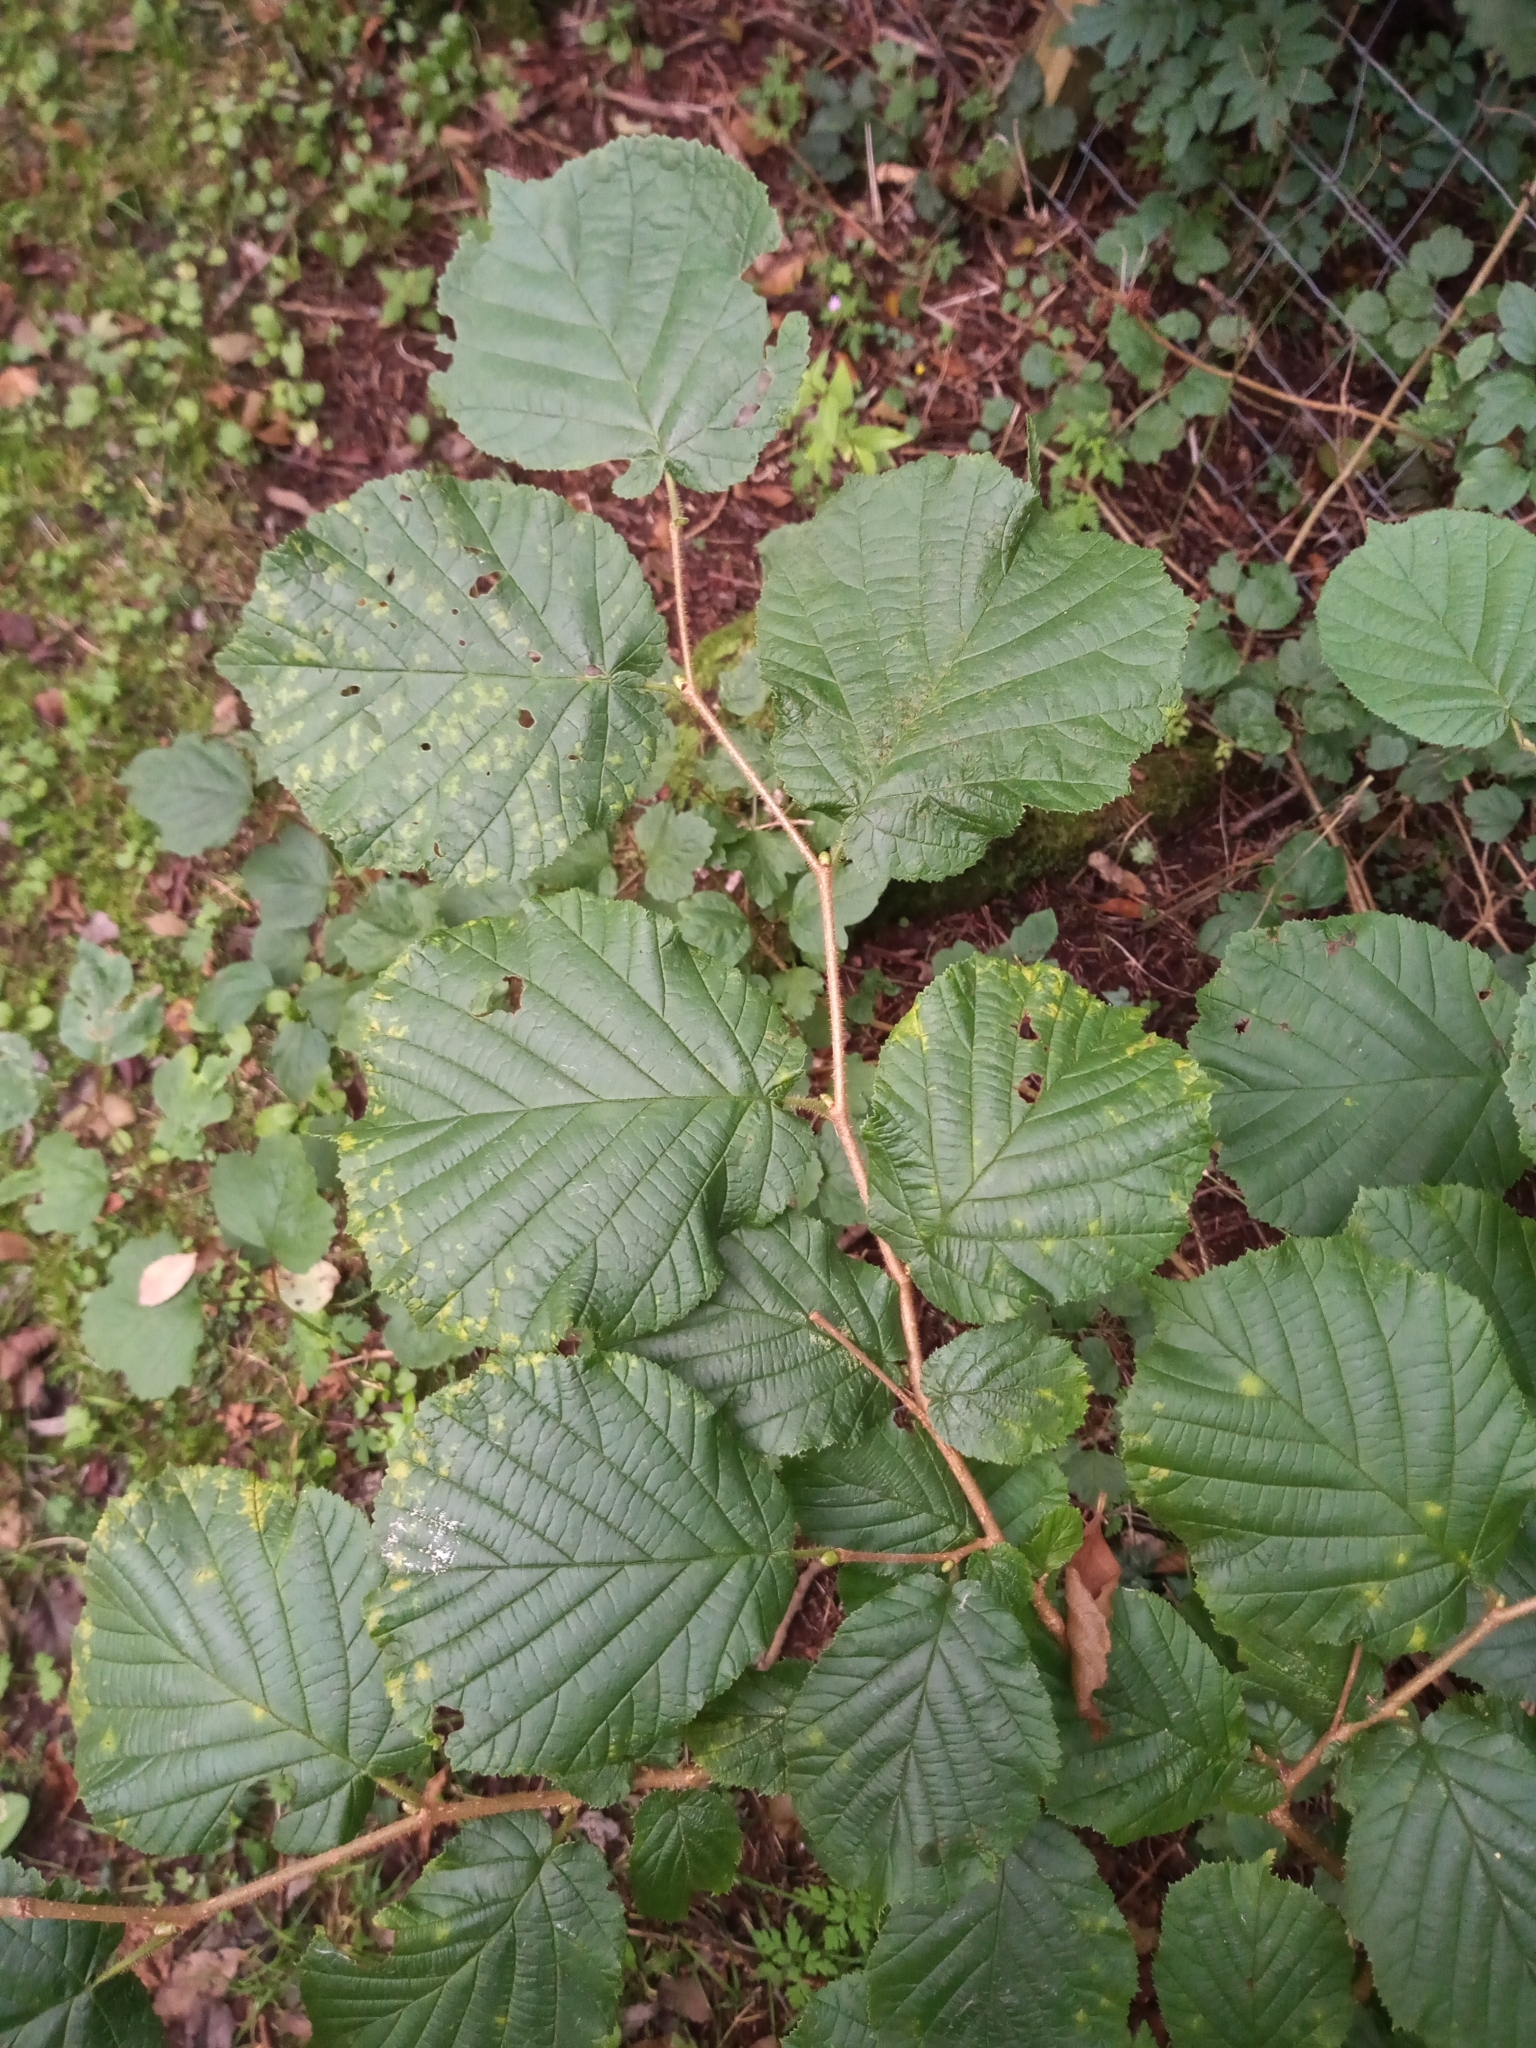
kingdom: Plantae
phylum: Tracheophyta
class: Magnoliopsida
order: Fagales
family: Betulaceae
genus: Corylus
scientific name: Corylus avellana
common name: European hazel
